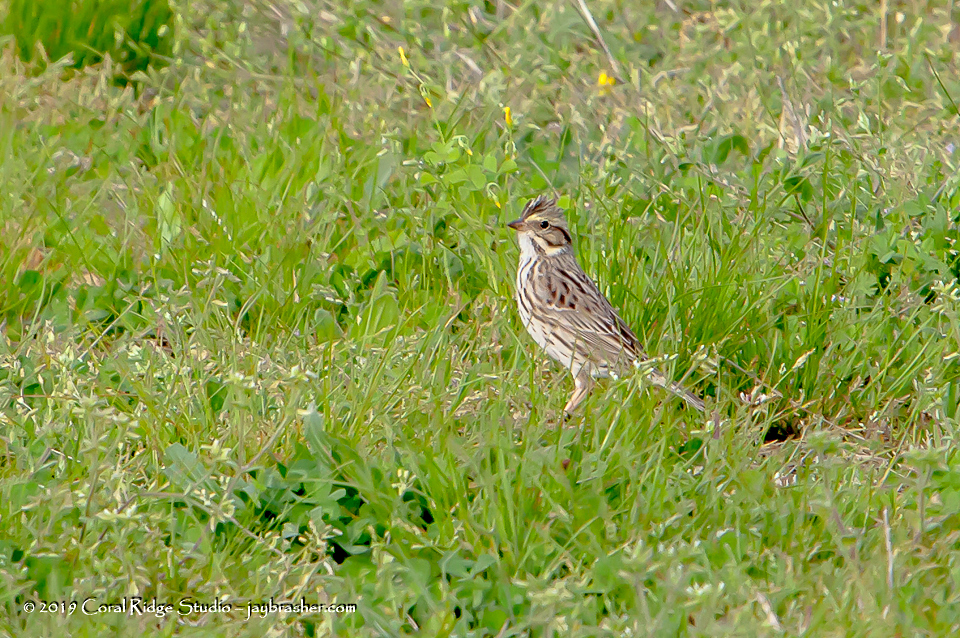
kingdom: Animalia
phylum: Chordata
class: Aves
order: Passeriformes
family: Passerellidae
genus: Passerculus
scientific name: Passerculus sandwichensis
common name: Savannah sparrow
